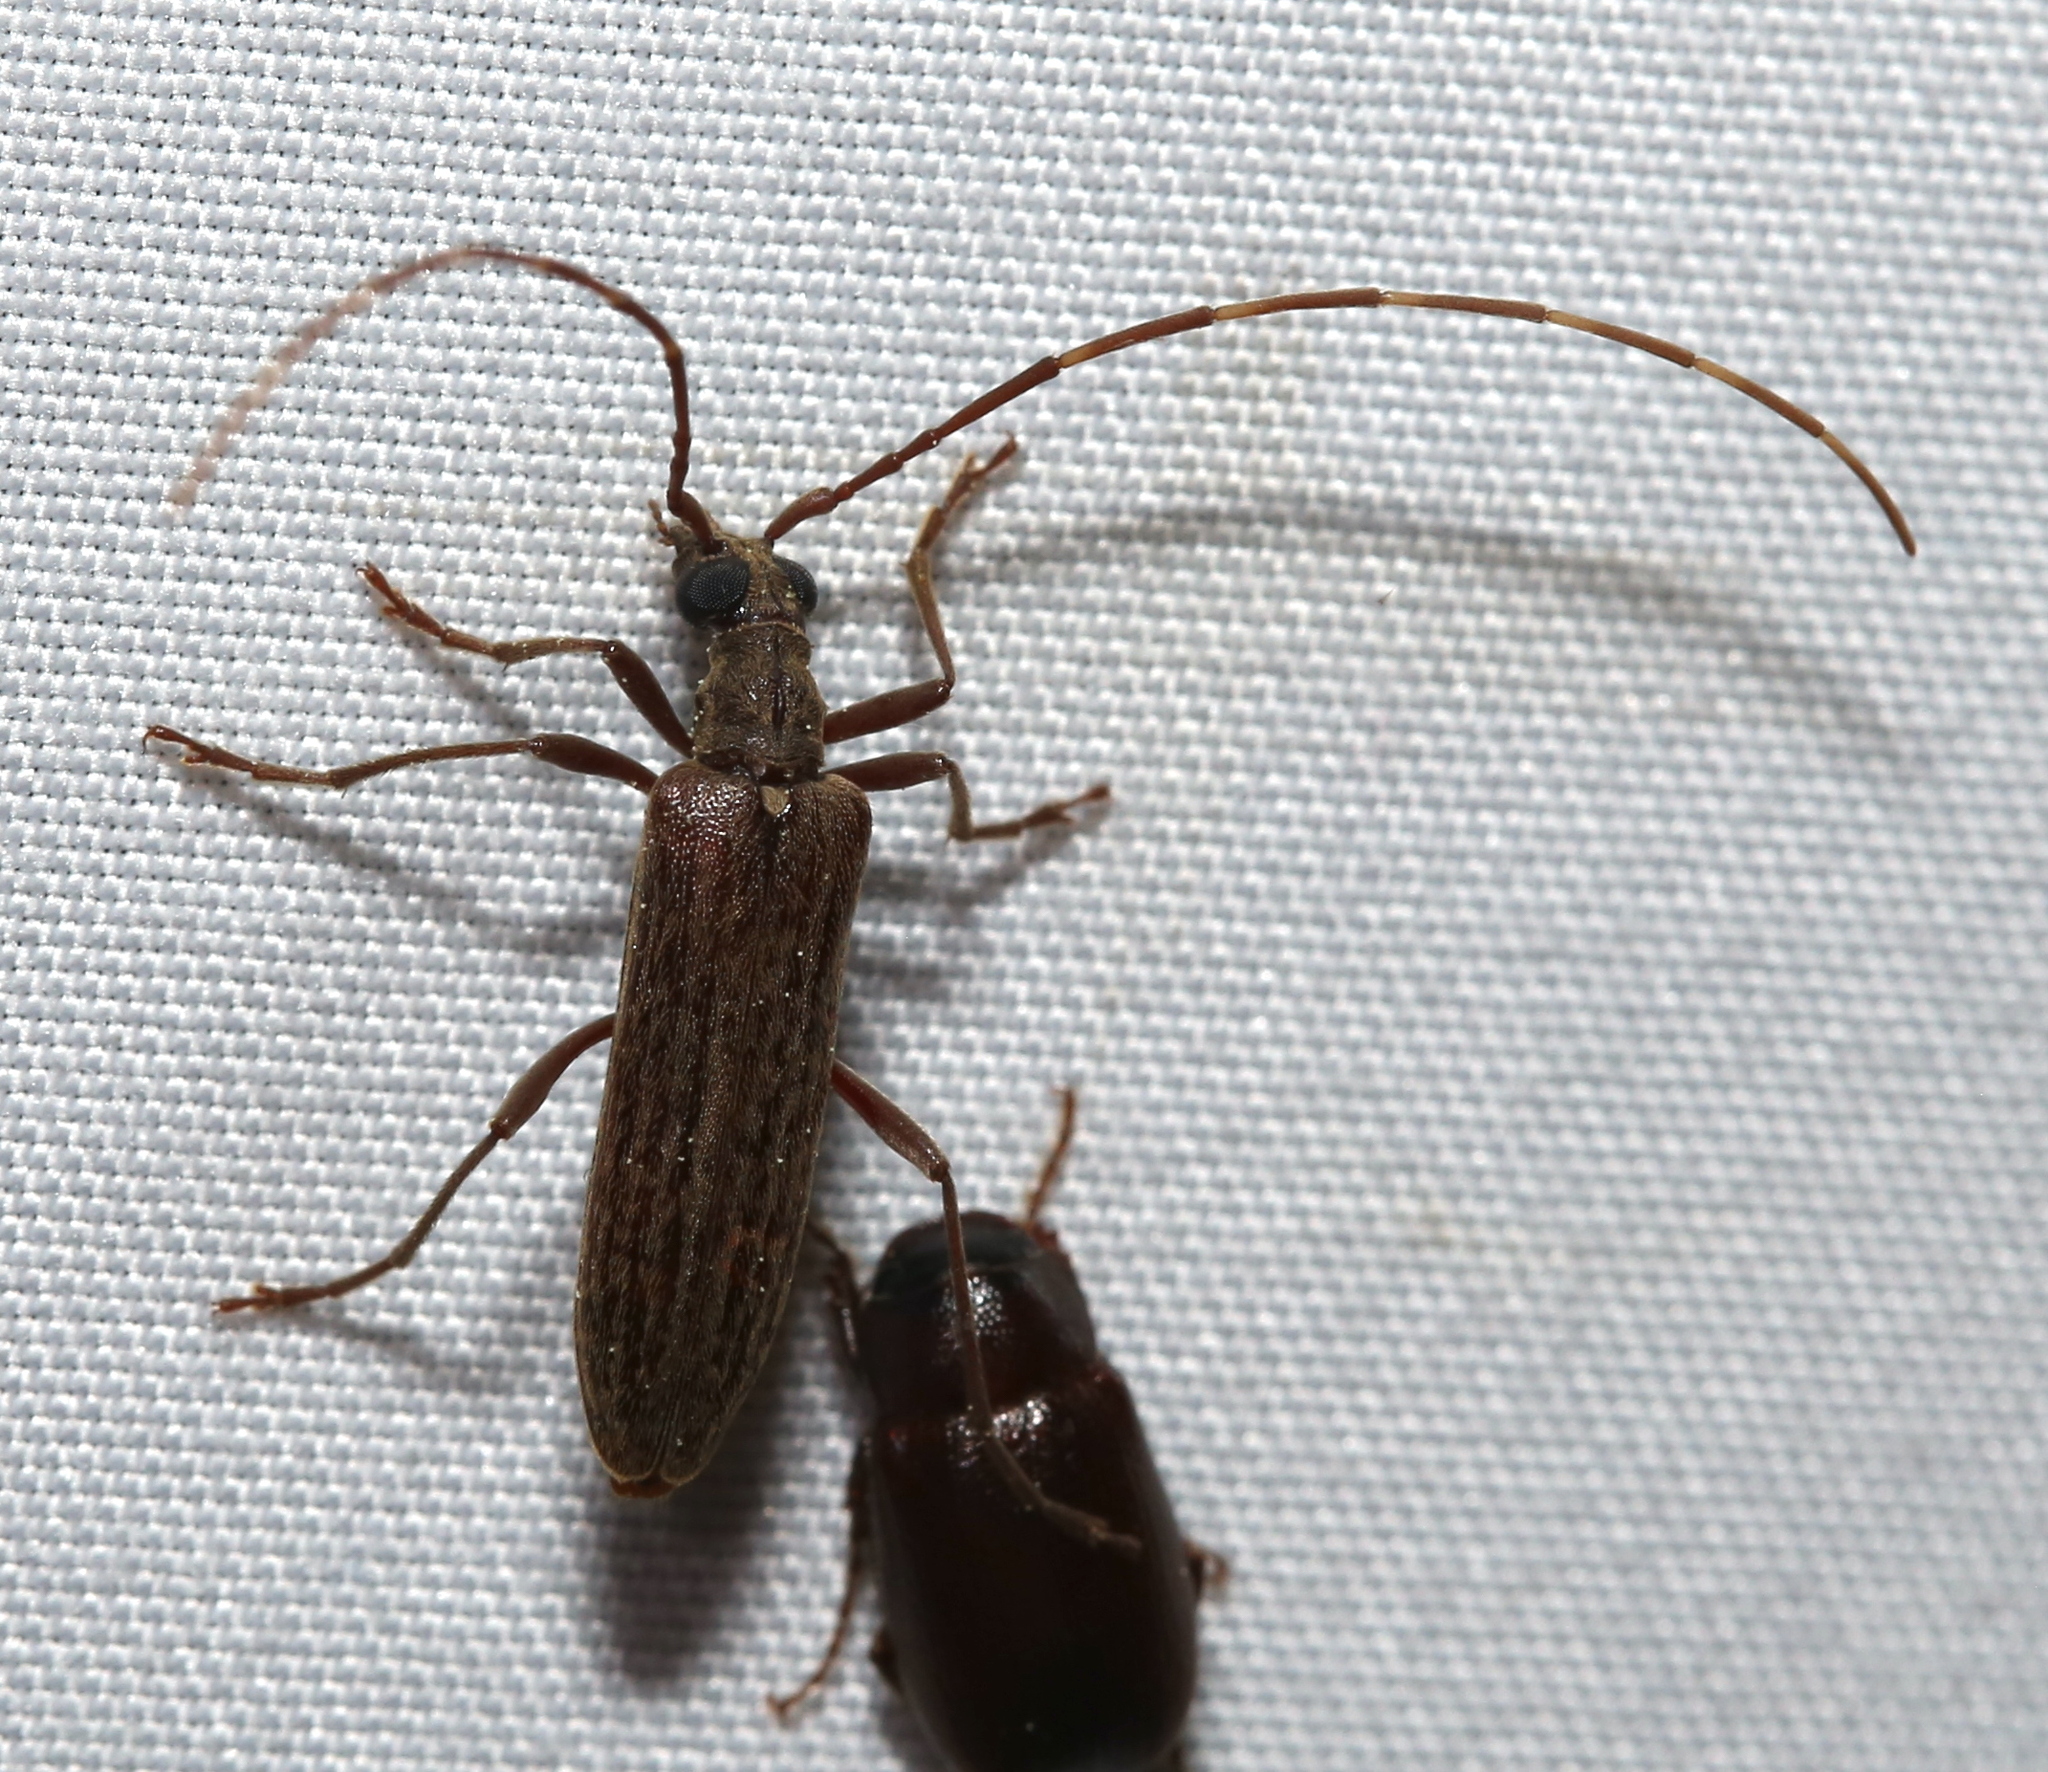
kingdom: Animalia
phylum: Arthropoda
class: Insecta
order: Coleoptera
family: Cerambycidae
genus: Centrodera
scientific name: Centrodera sublineata
